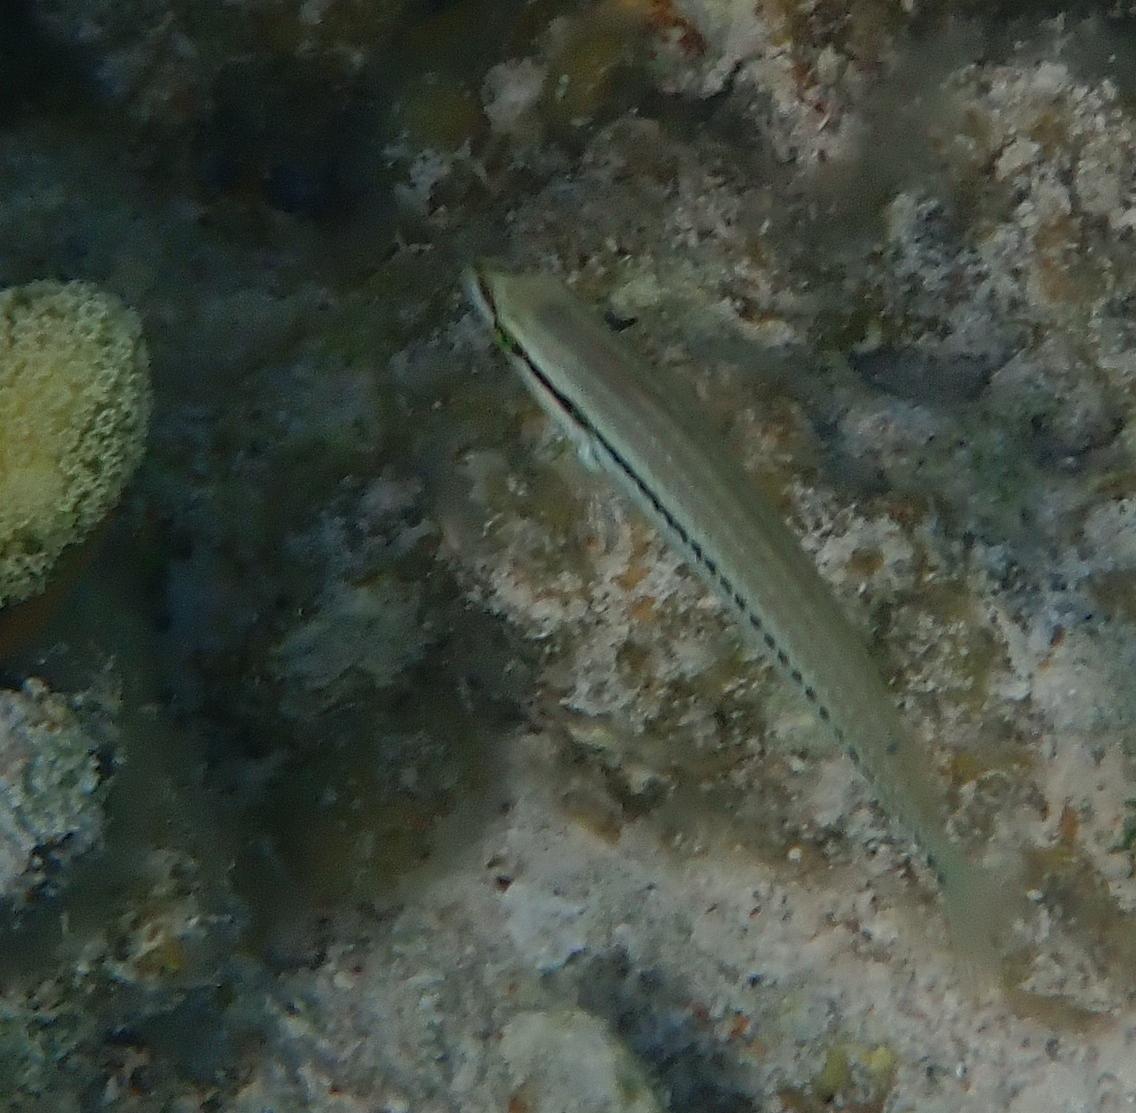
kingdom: Animalia
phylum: Chordata
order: Perciformes
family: Labridae
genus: Halichoeres
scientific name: Halichoeres bivittatus
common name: Slippery dick
